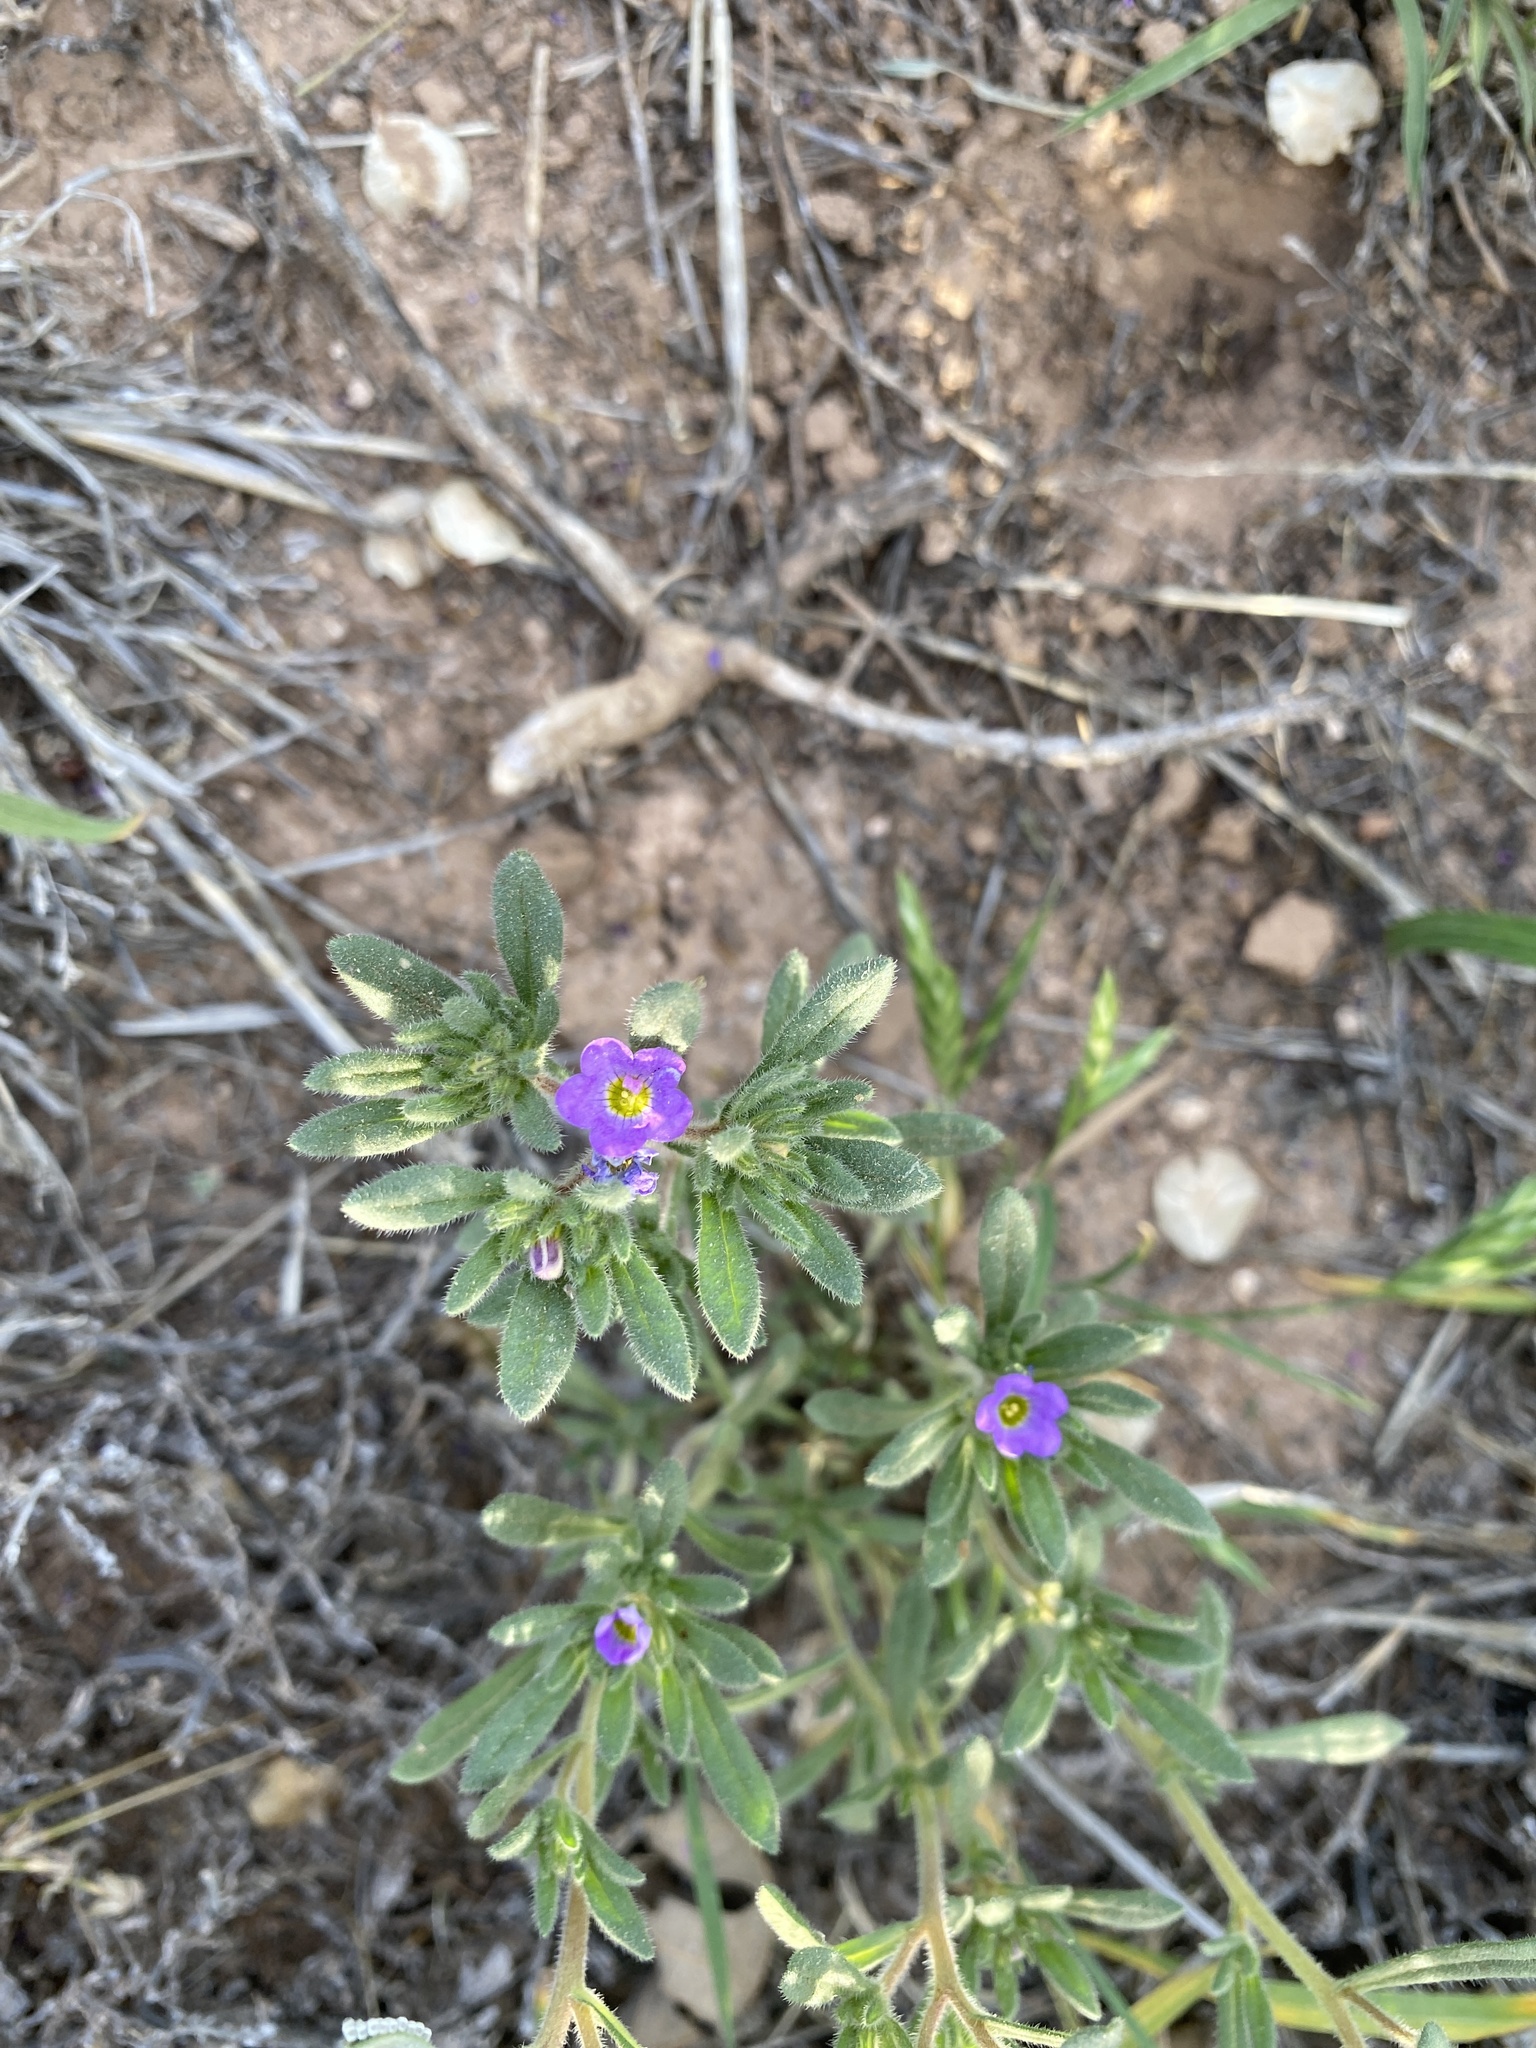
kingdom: Plantae
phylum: Tracheophyta
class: Magnoliopsida
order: Boraginales
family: Namaceae
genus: Nama
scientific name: Nama hispida
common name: Bristly nama
